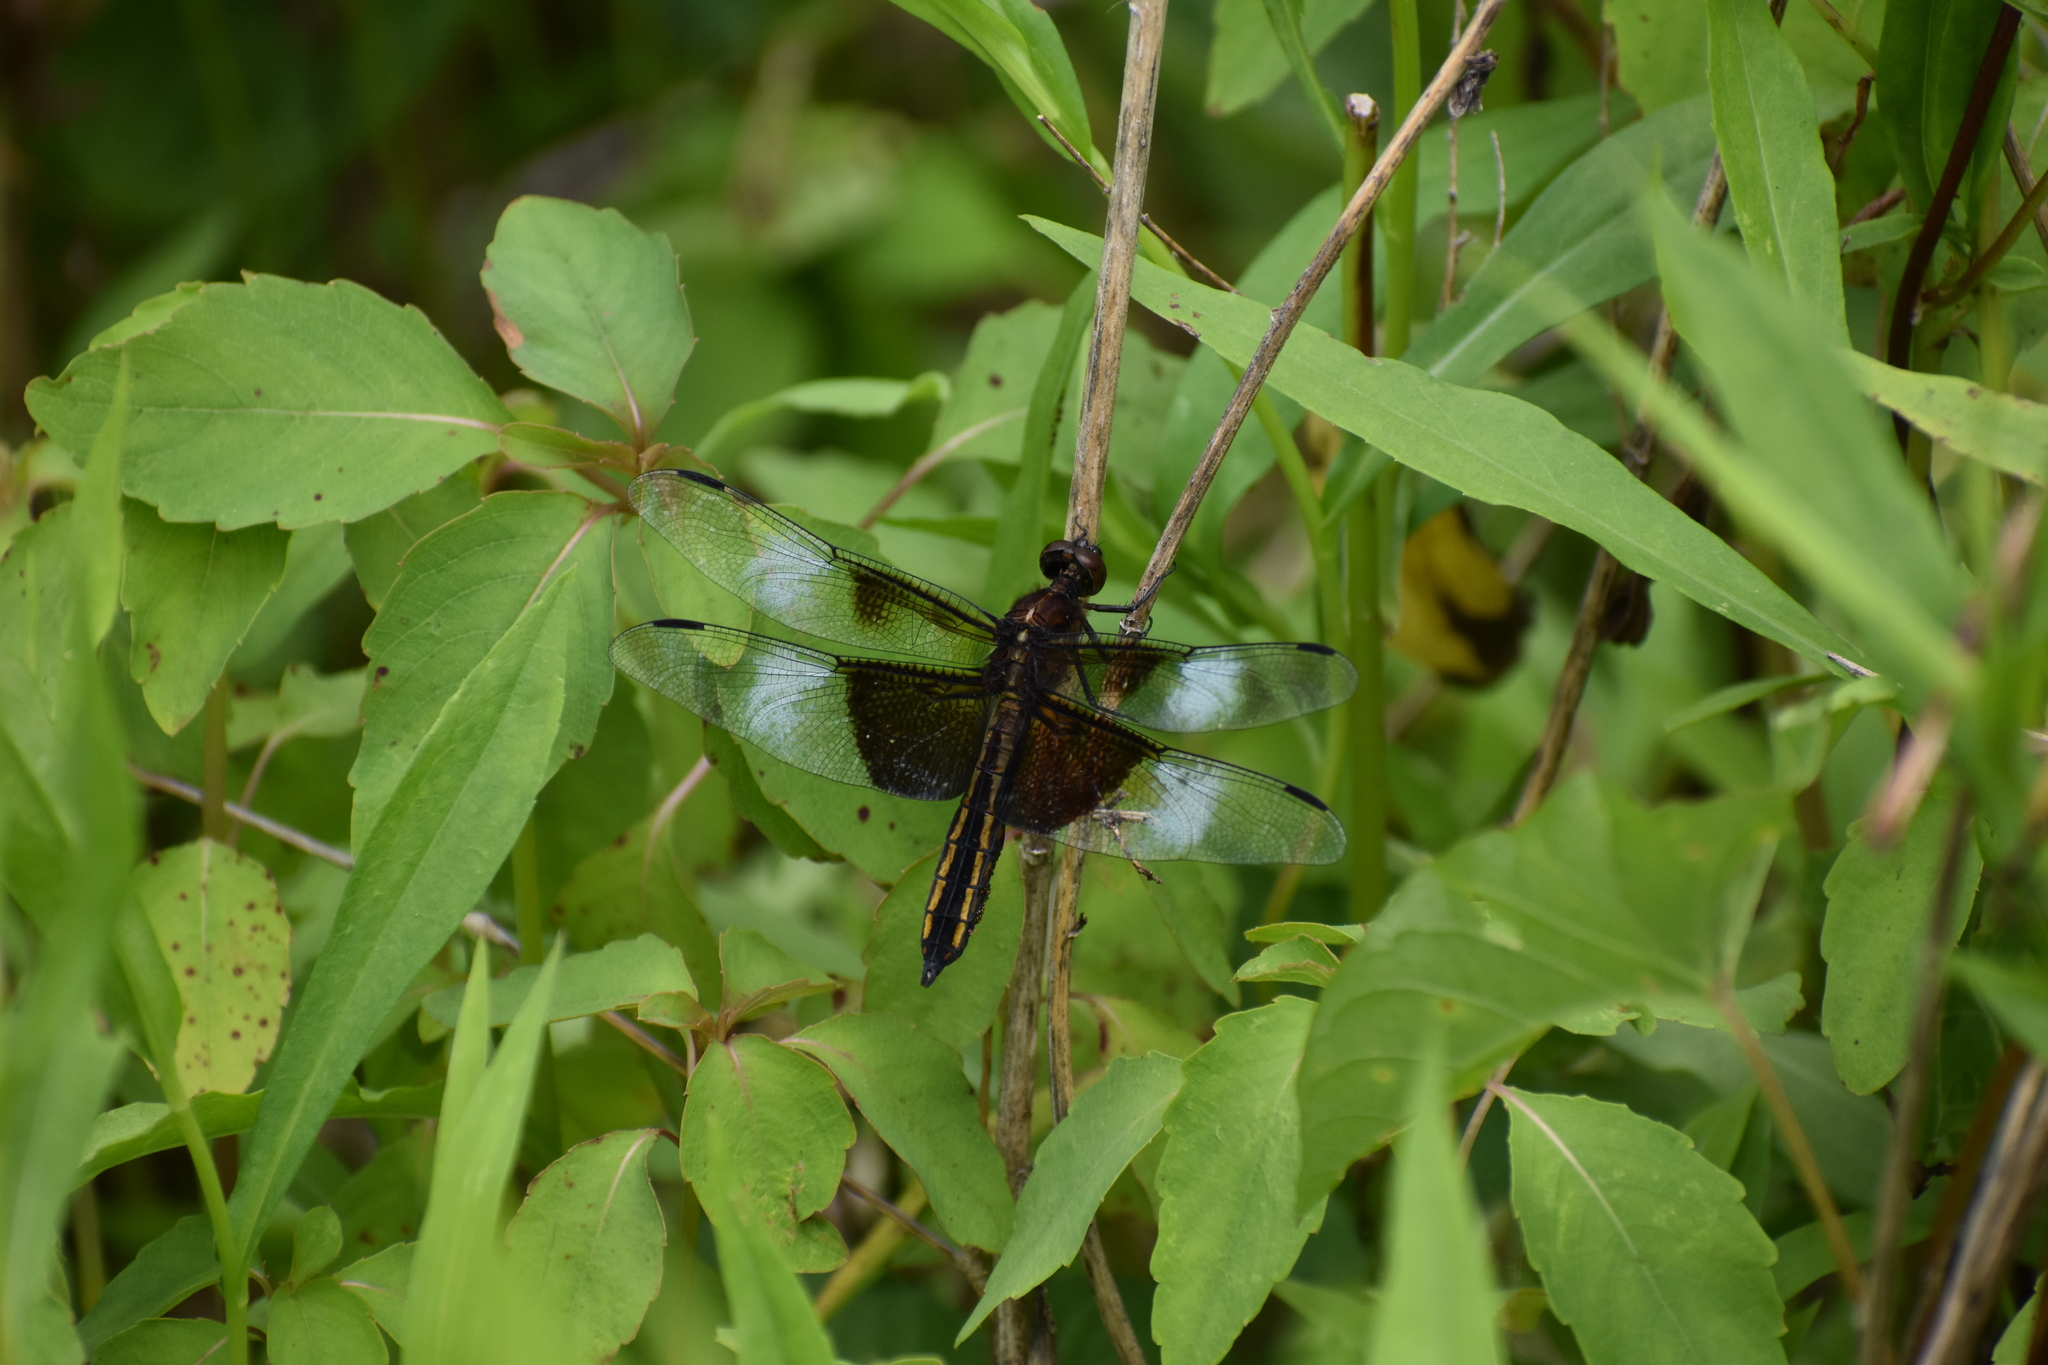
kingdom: Animalia
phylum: Arthropoda
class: Insecta
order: Odonata
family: Libellulidae
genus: Libellula
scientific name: Libellula luctuosa
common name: Widow skimmer
